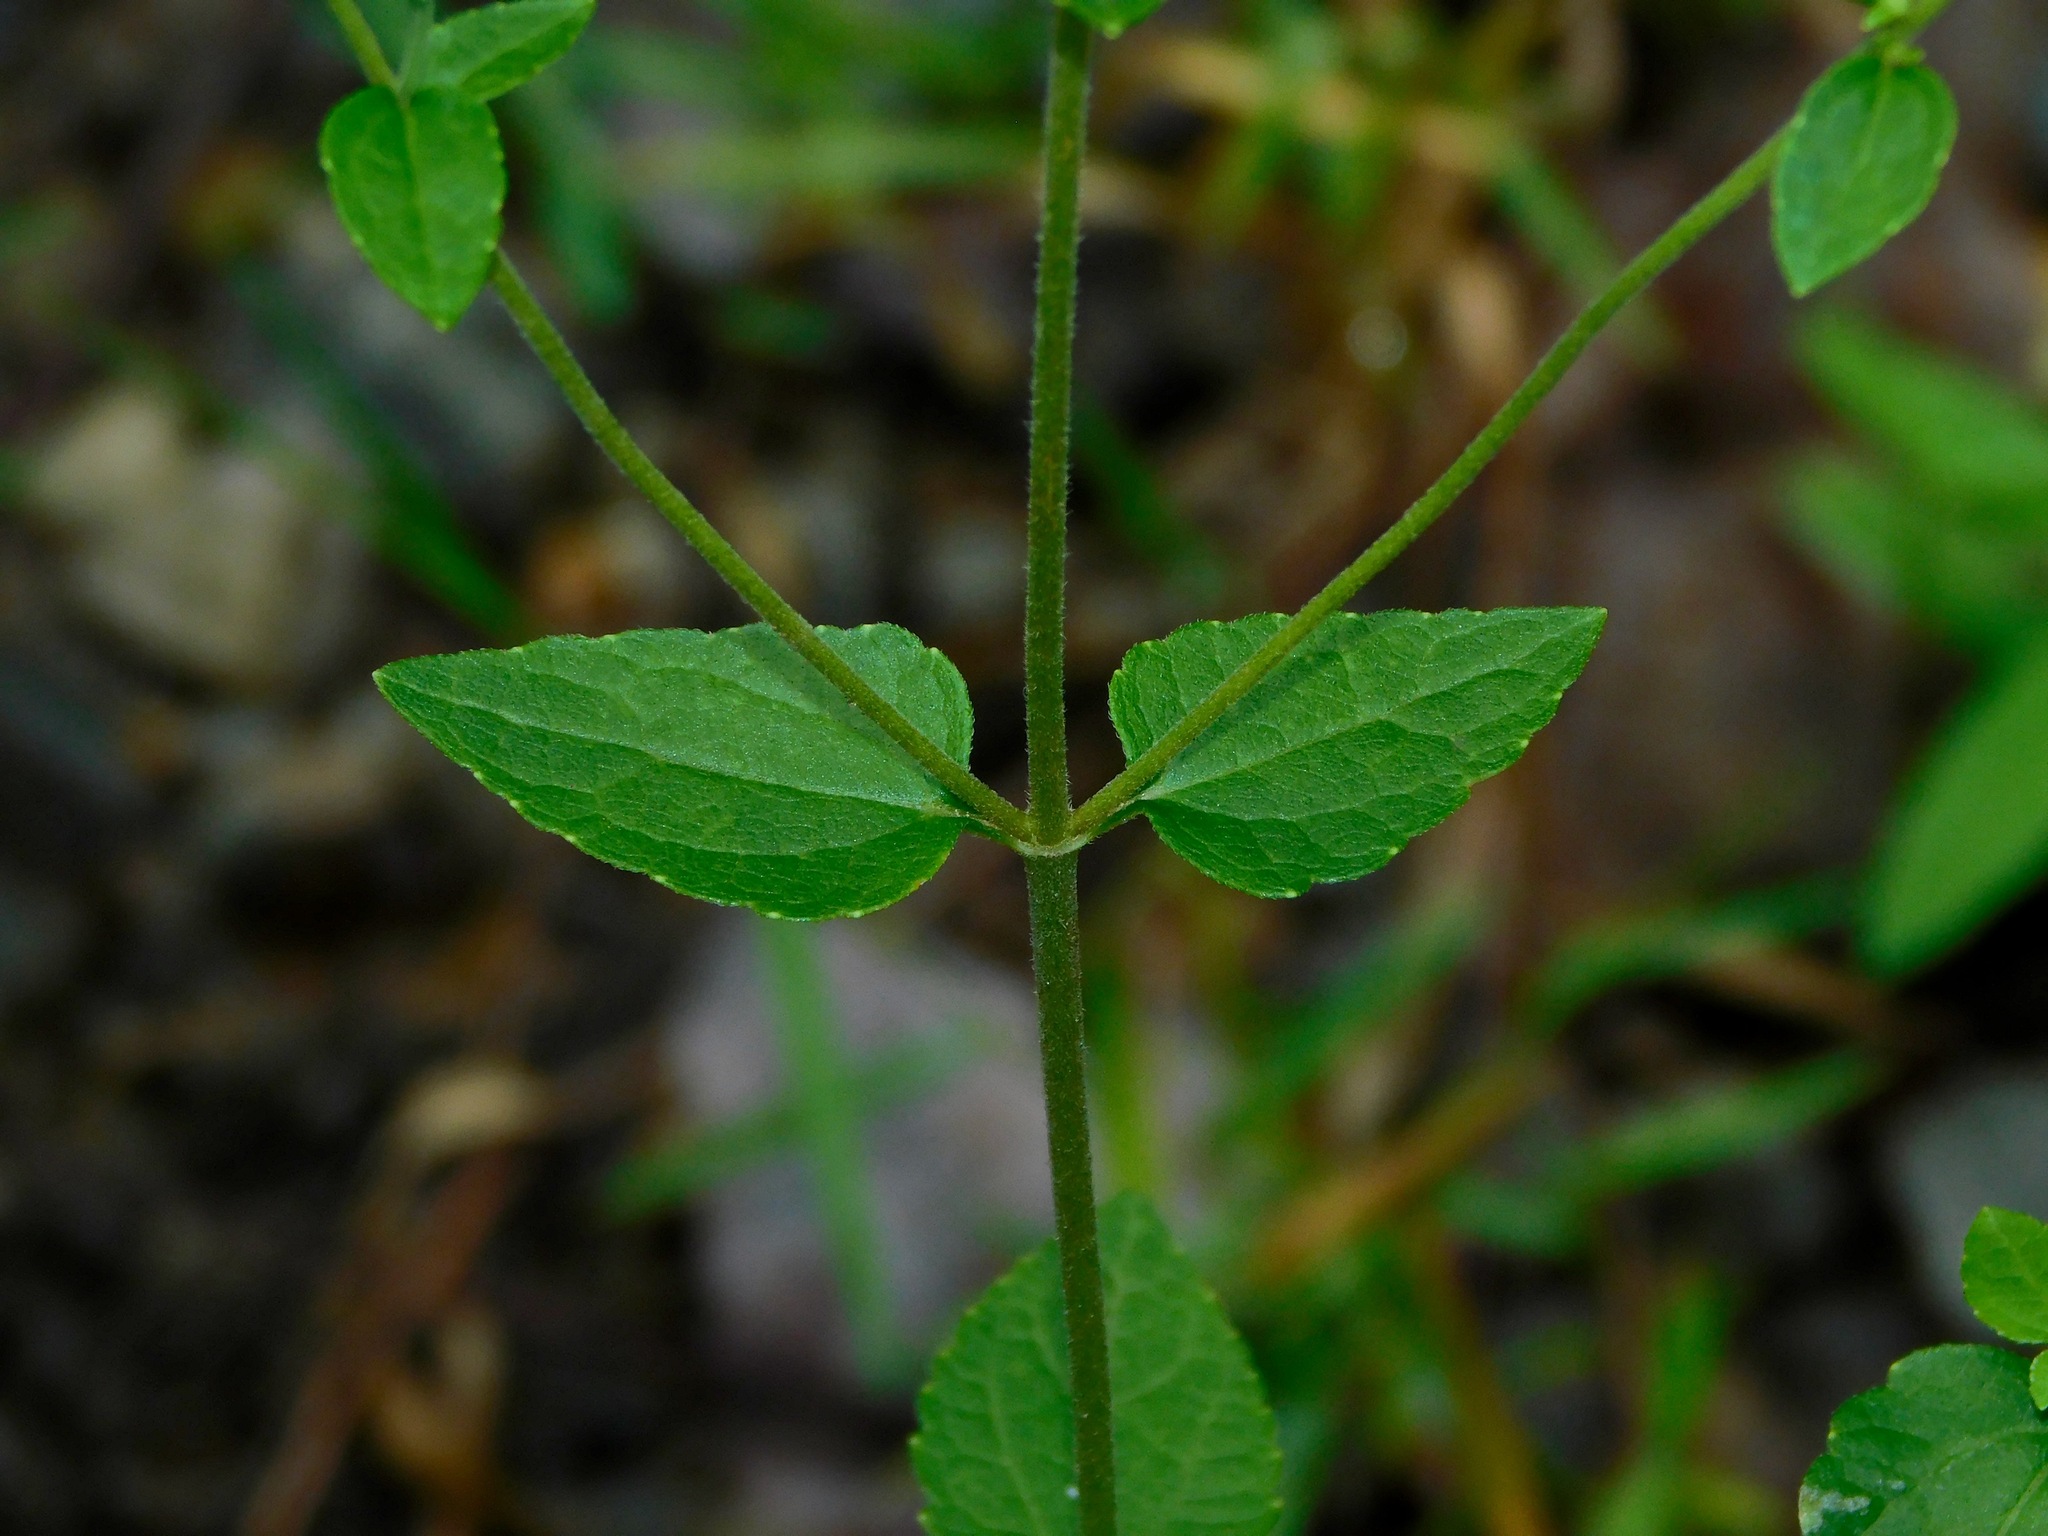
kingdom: Plantae
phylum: Tracheophyta
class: Magnoliopsida
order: Asterales
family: Asteraceae
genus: Ageratina
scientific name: Ageratina aromatica
